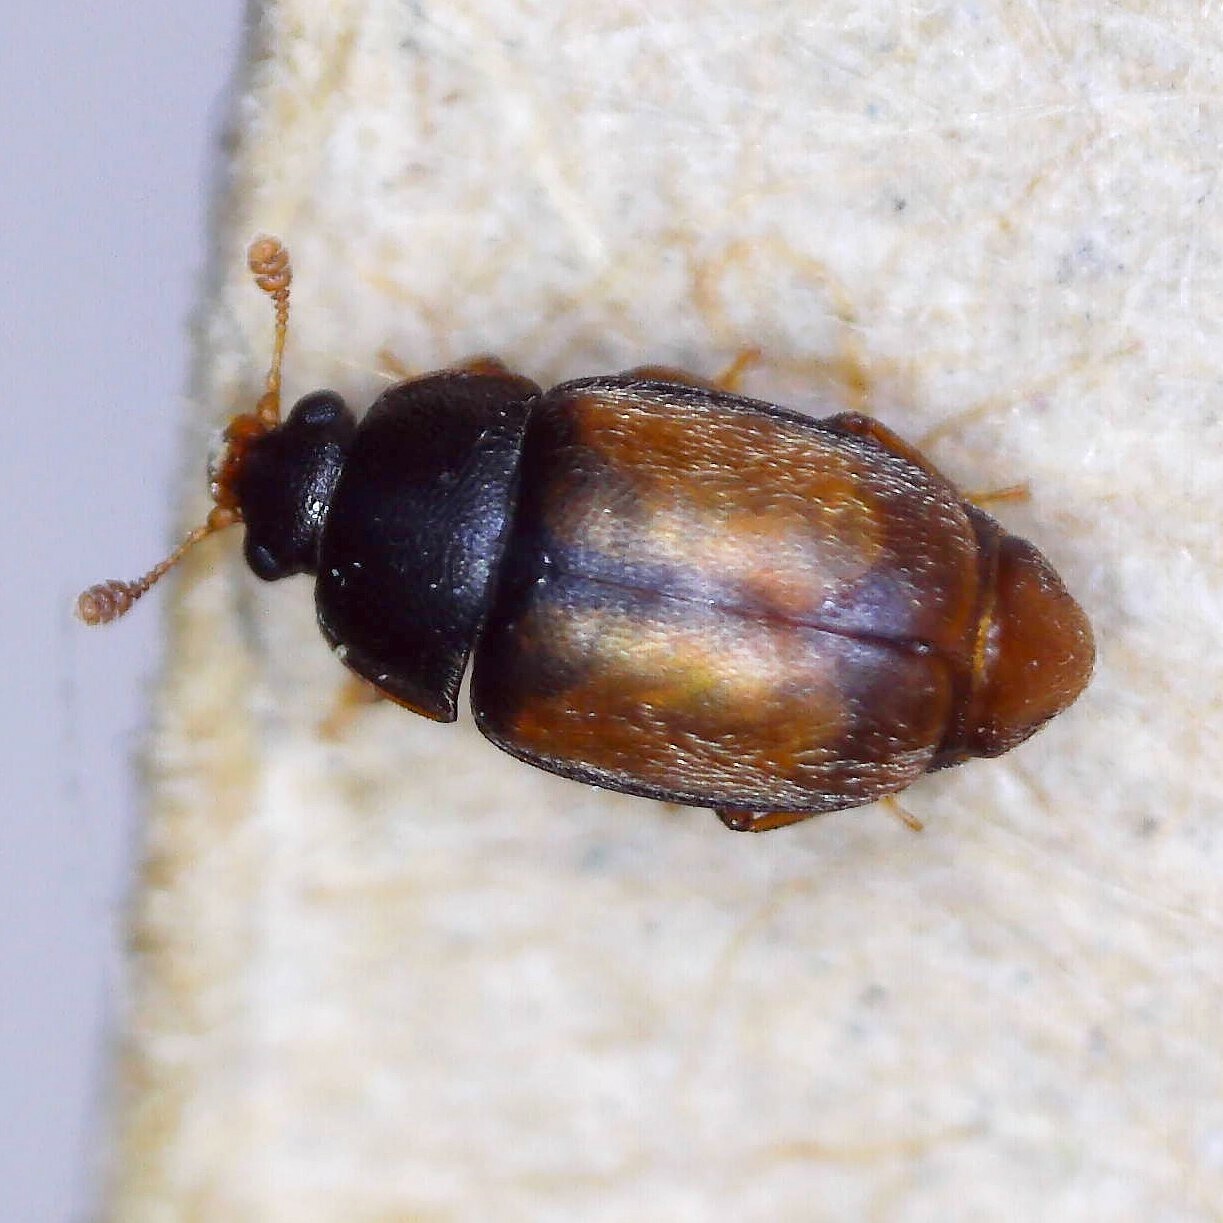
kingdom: Animalia
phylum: Arthropoda
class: Insecta
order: Coleoptera
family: Nitidulidae
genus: Epuraea
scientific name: Epuraea melanocephala
